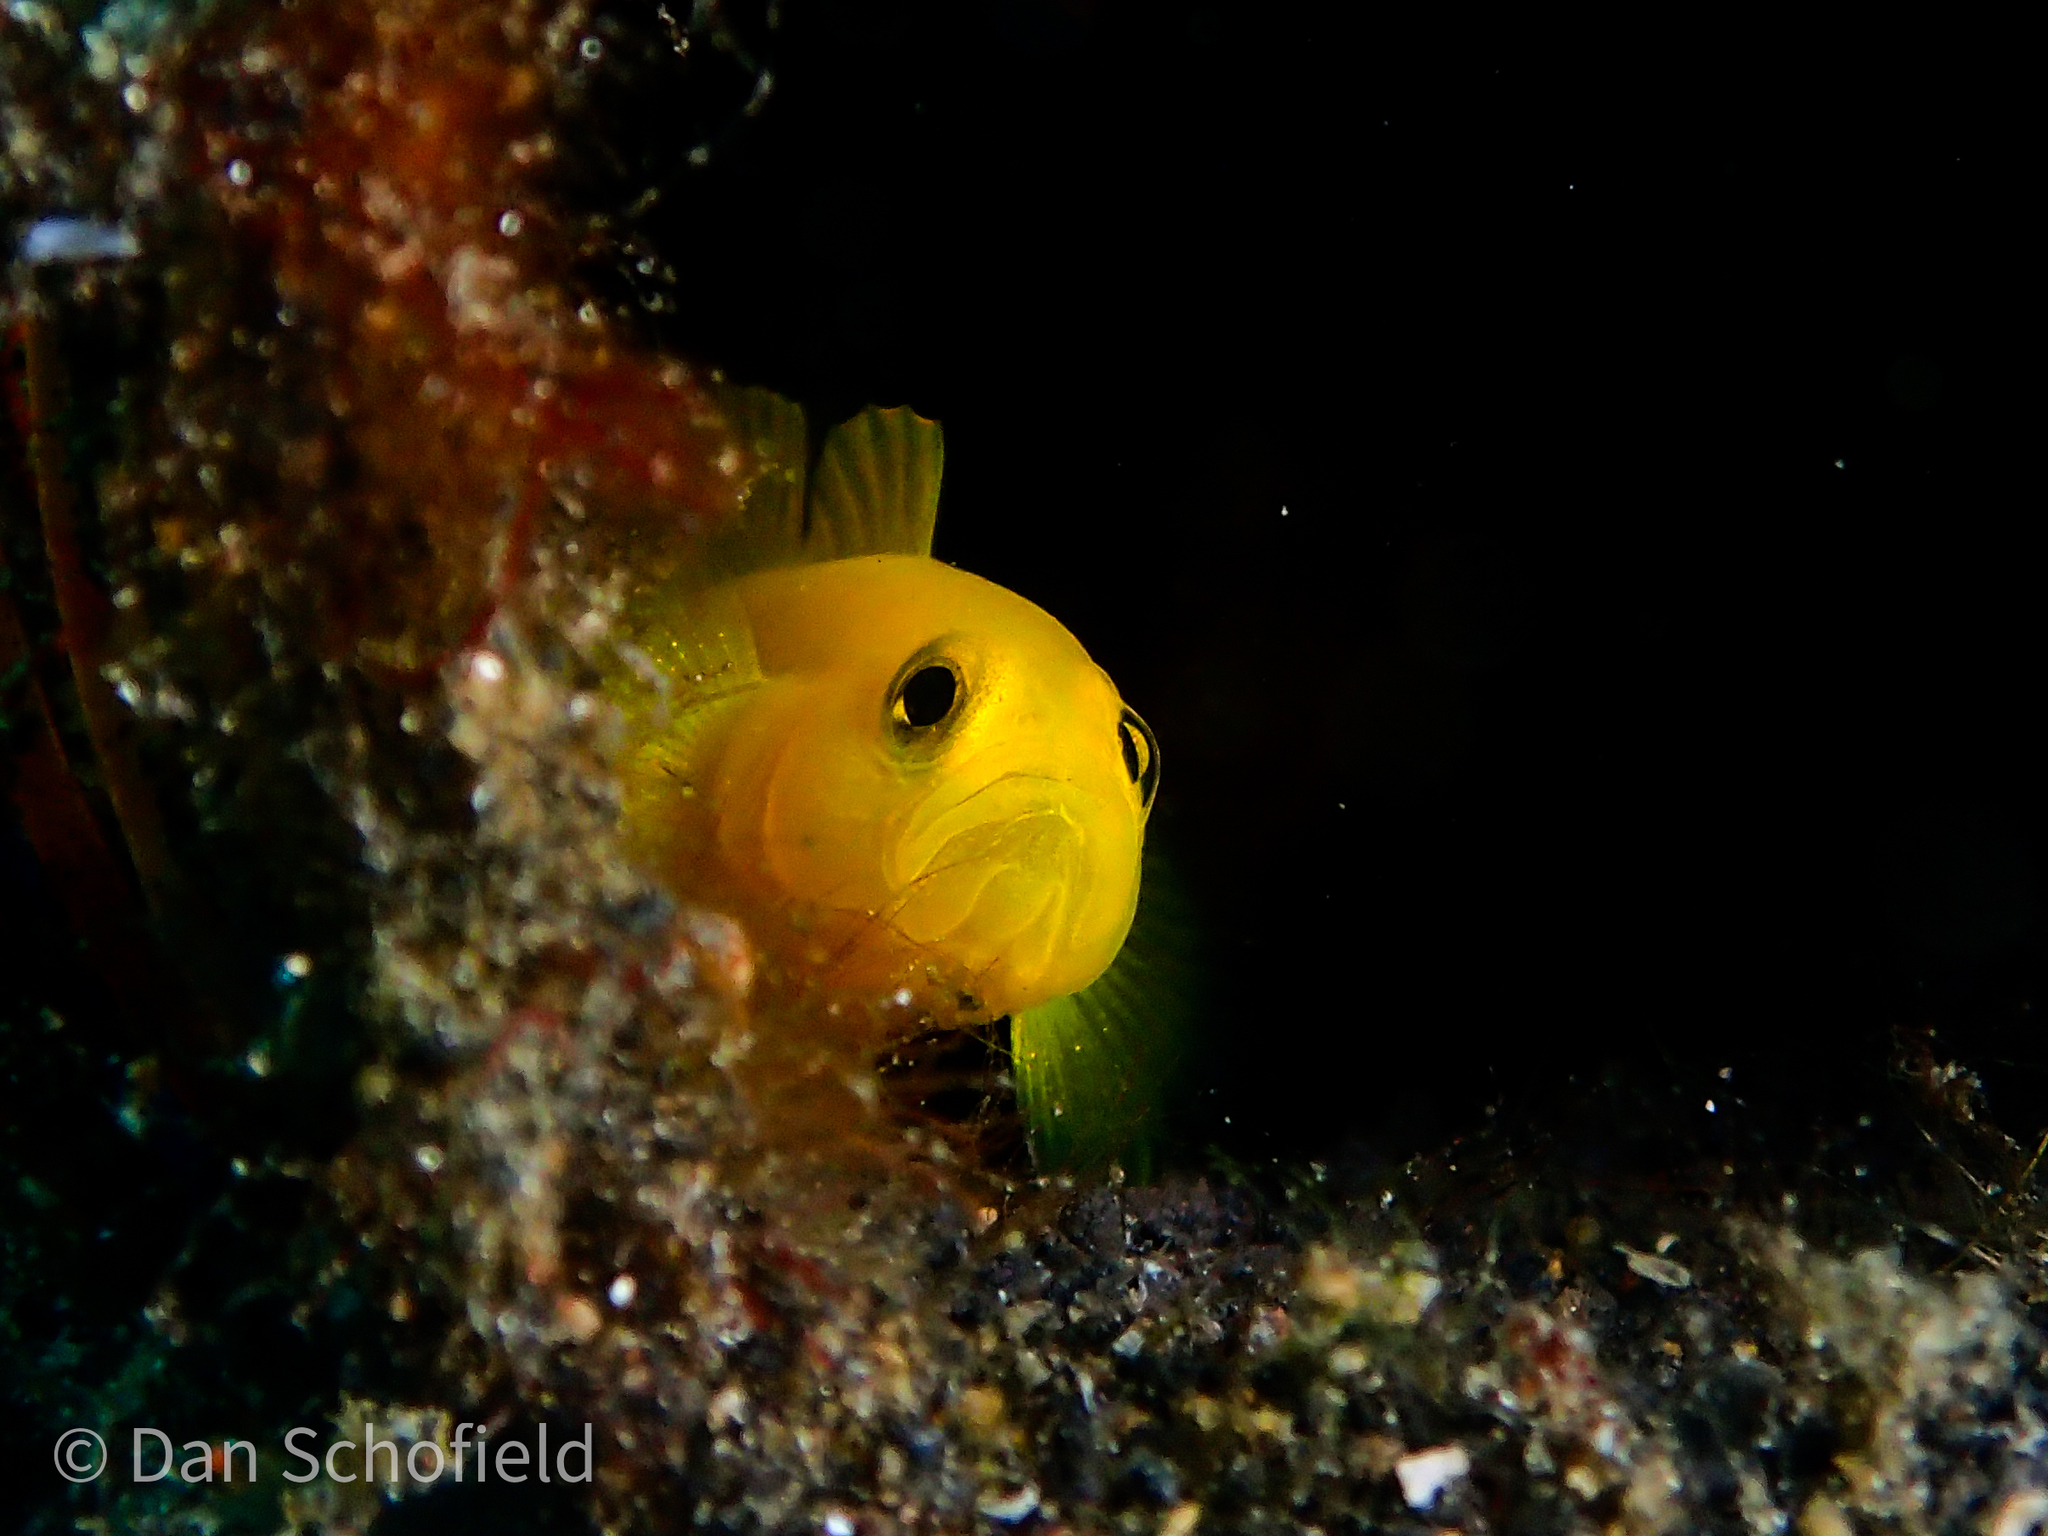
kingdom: Animalia
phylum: Chordata
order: Perciformes
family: Gobiidae
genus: Lubricogobius
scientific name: Lubricogobius exiguus
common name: Yellow pygmy-goby
